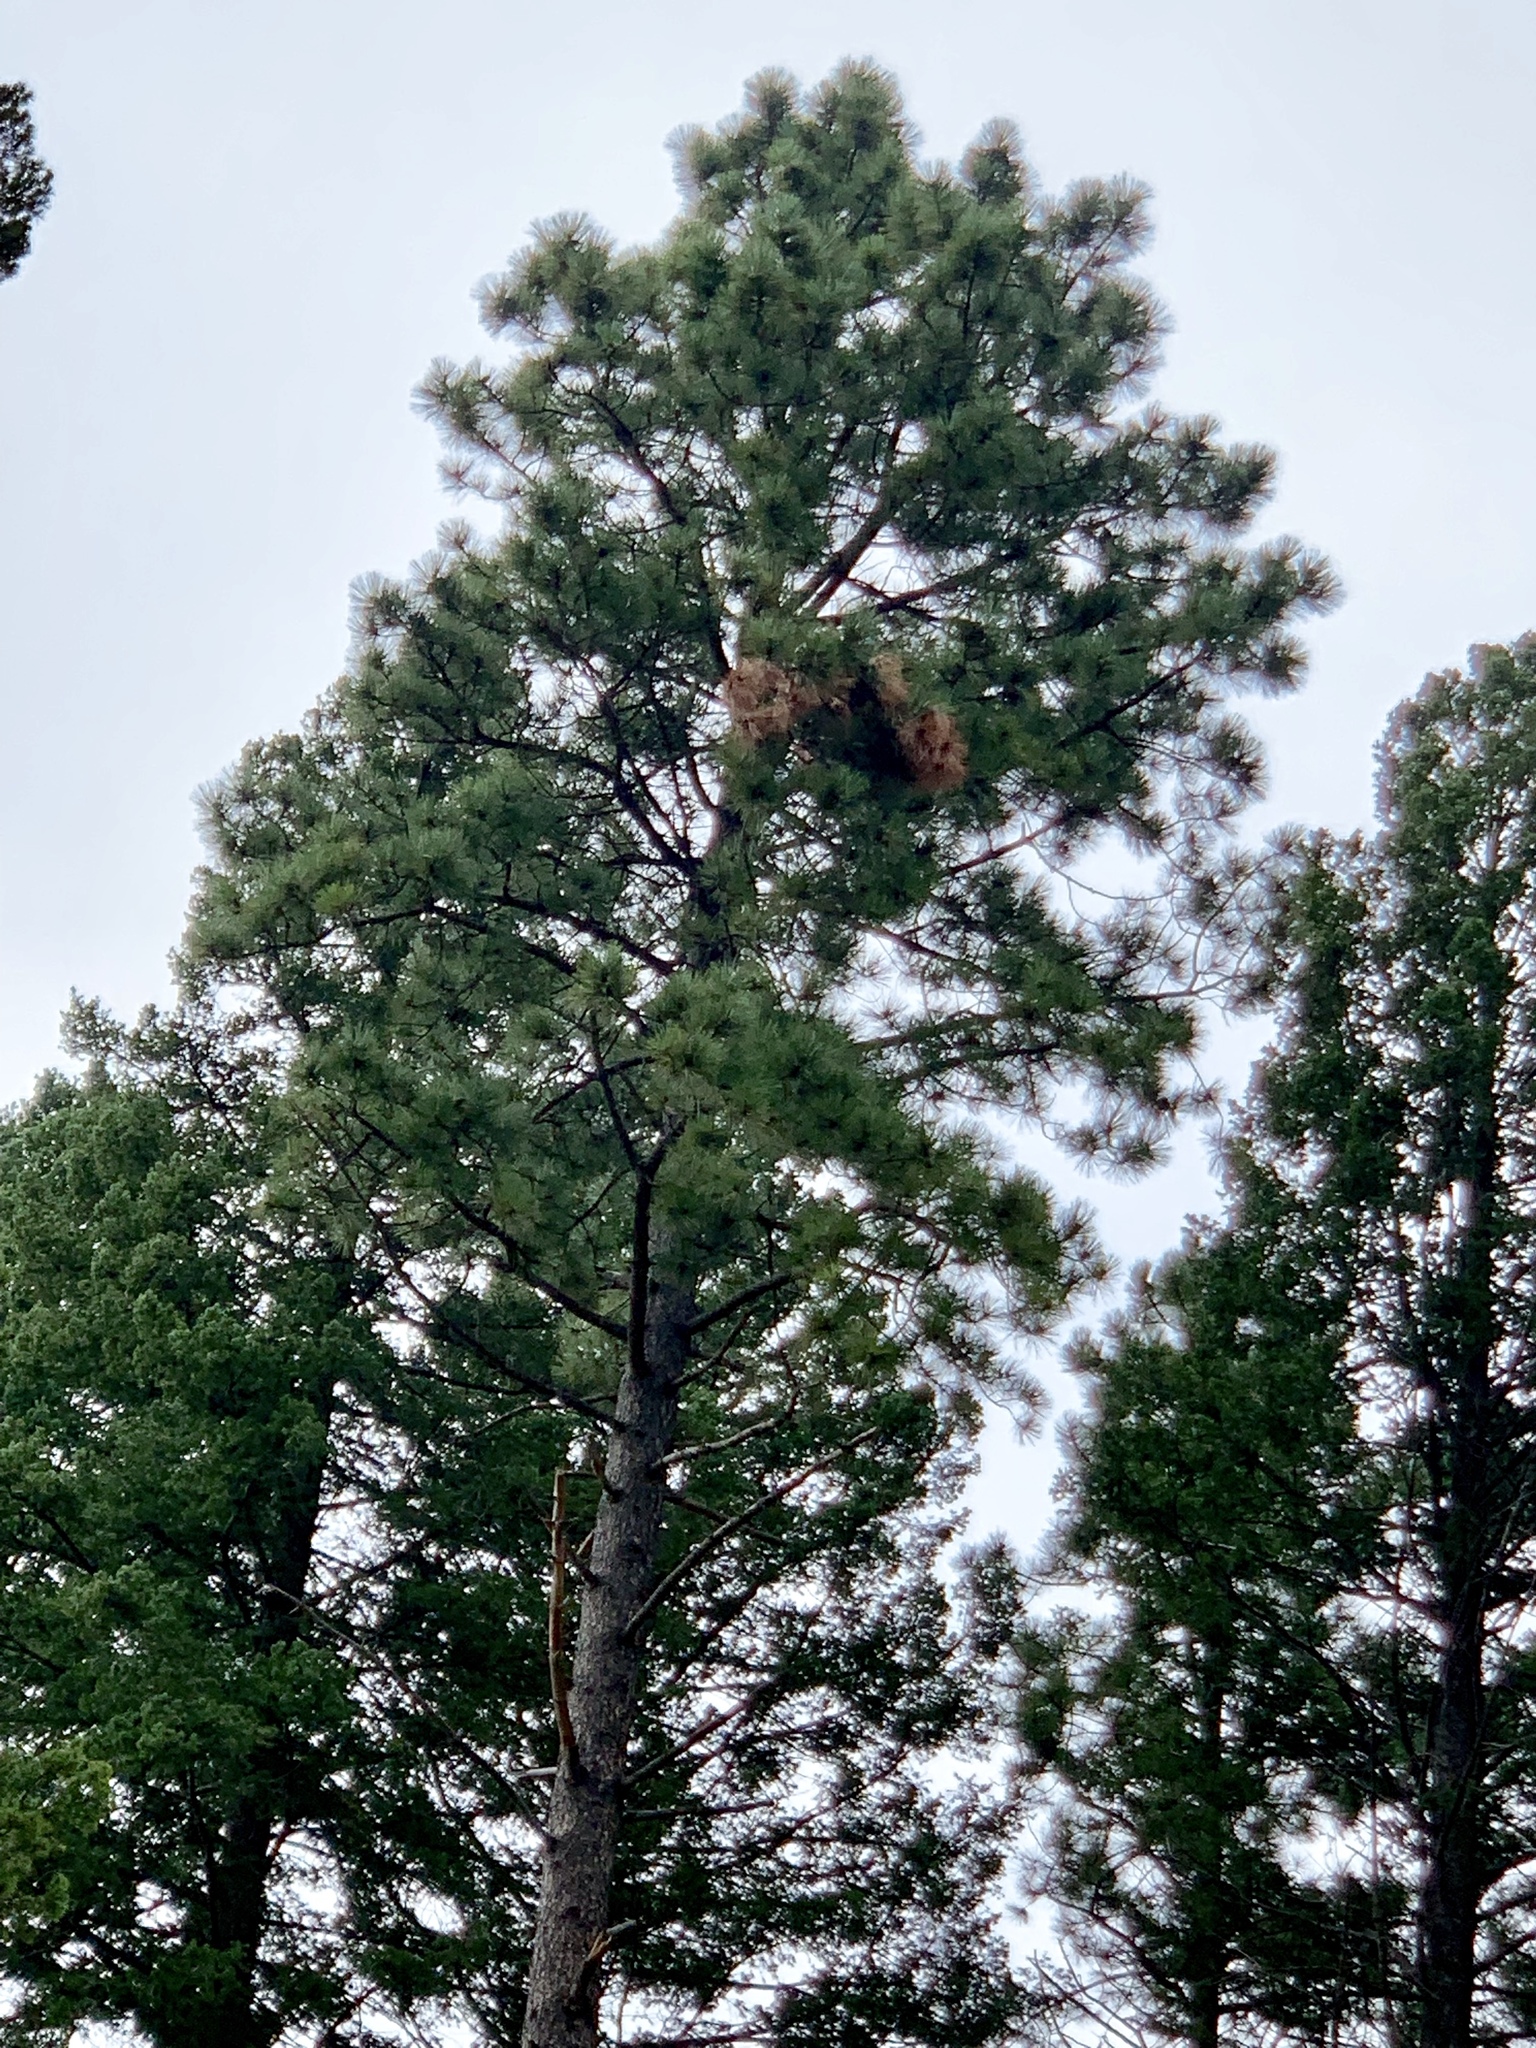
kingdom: Plantae
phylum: Tracheophyta
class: Pinopsida
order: Pinales
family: Pinaceae
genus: Pinus
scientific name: Pinus ponderosa
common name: Western yellow-pine
